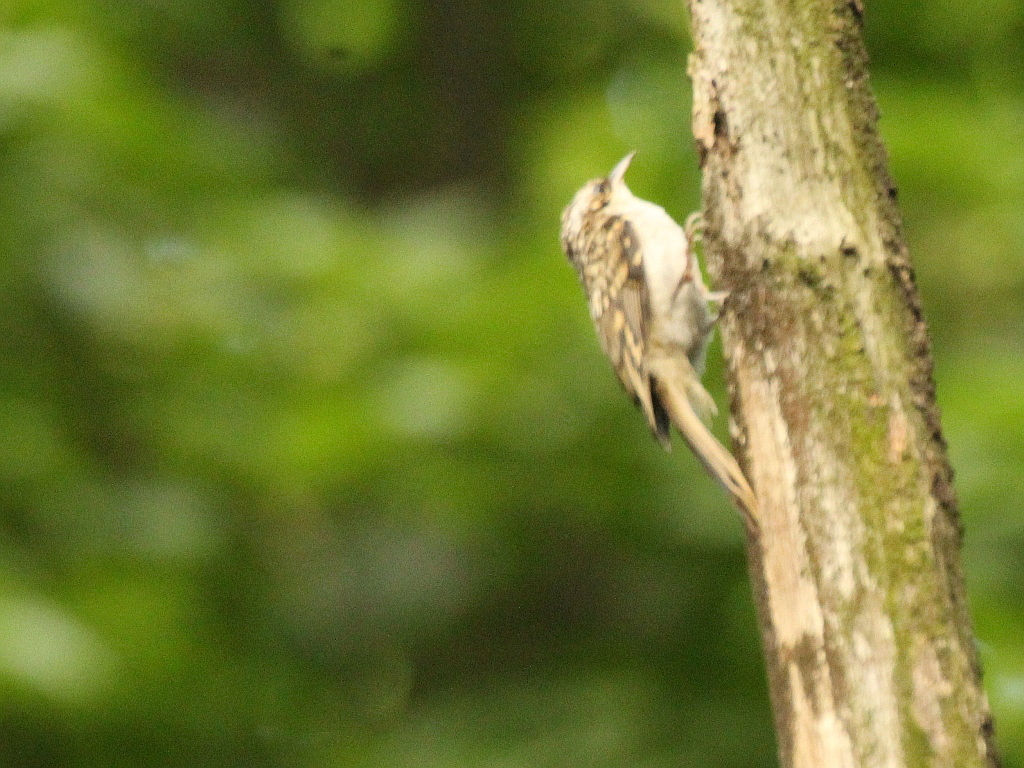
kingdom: Animalia
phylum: Chordata
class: Aves
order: Passeriformes
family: Certhiidae
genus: Certhia
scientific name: Certhia familiaris
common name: Eurasian treecreeper
